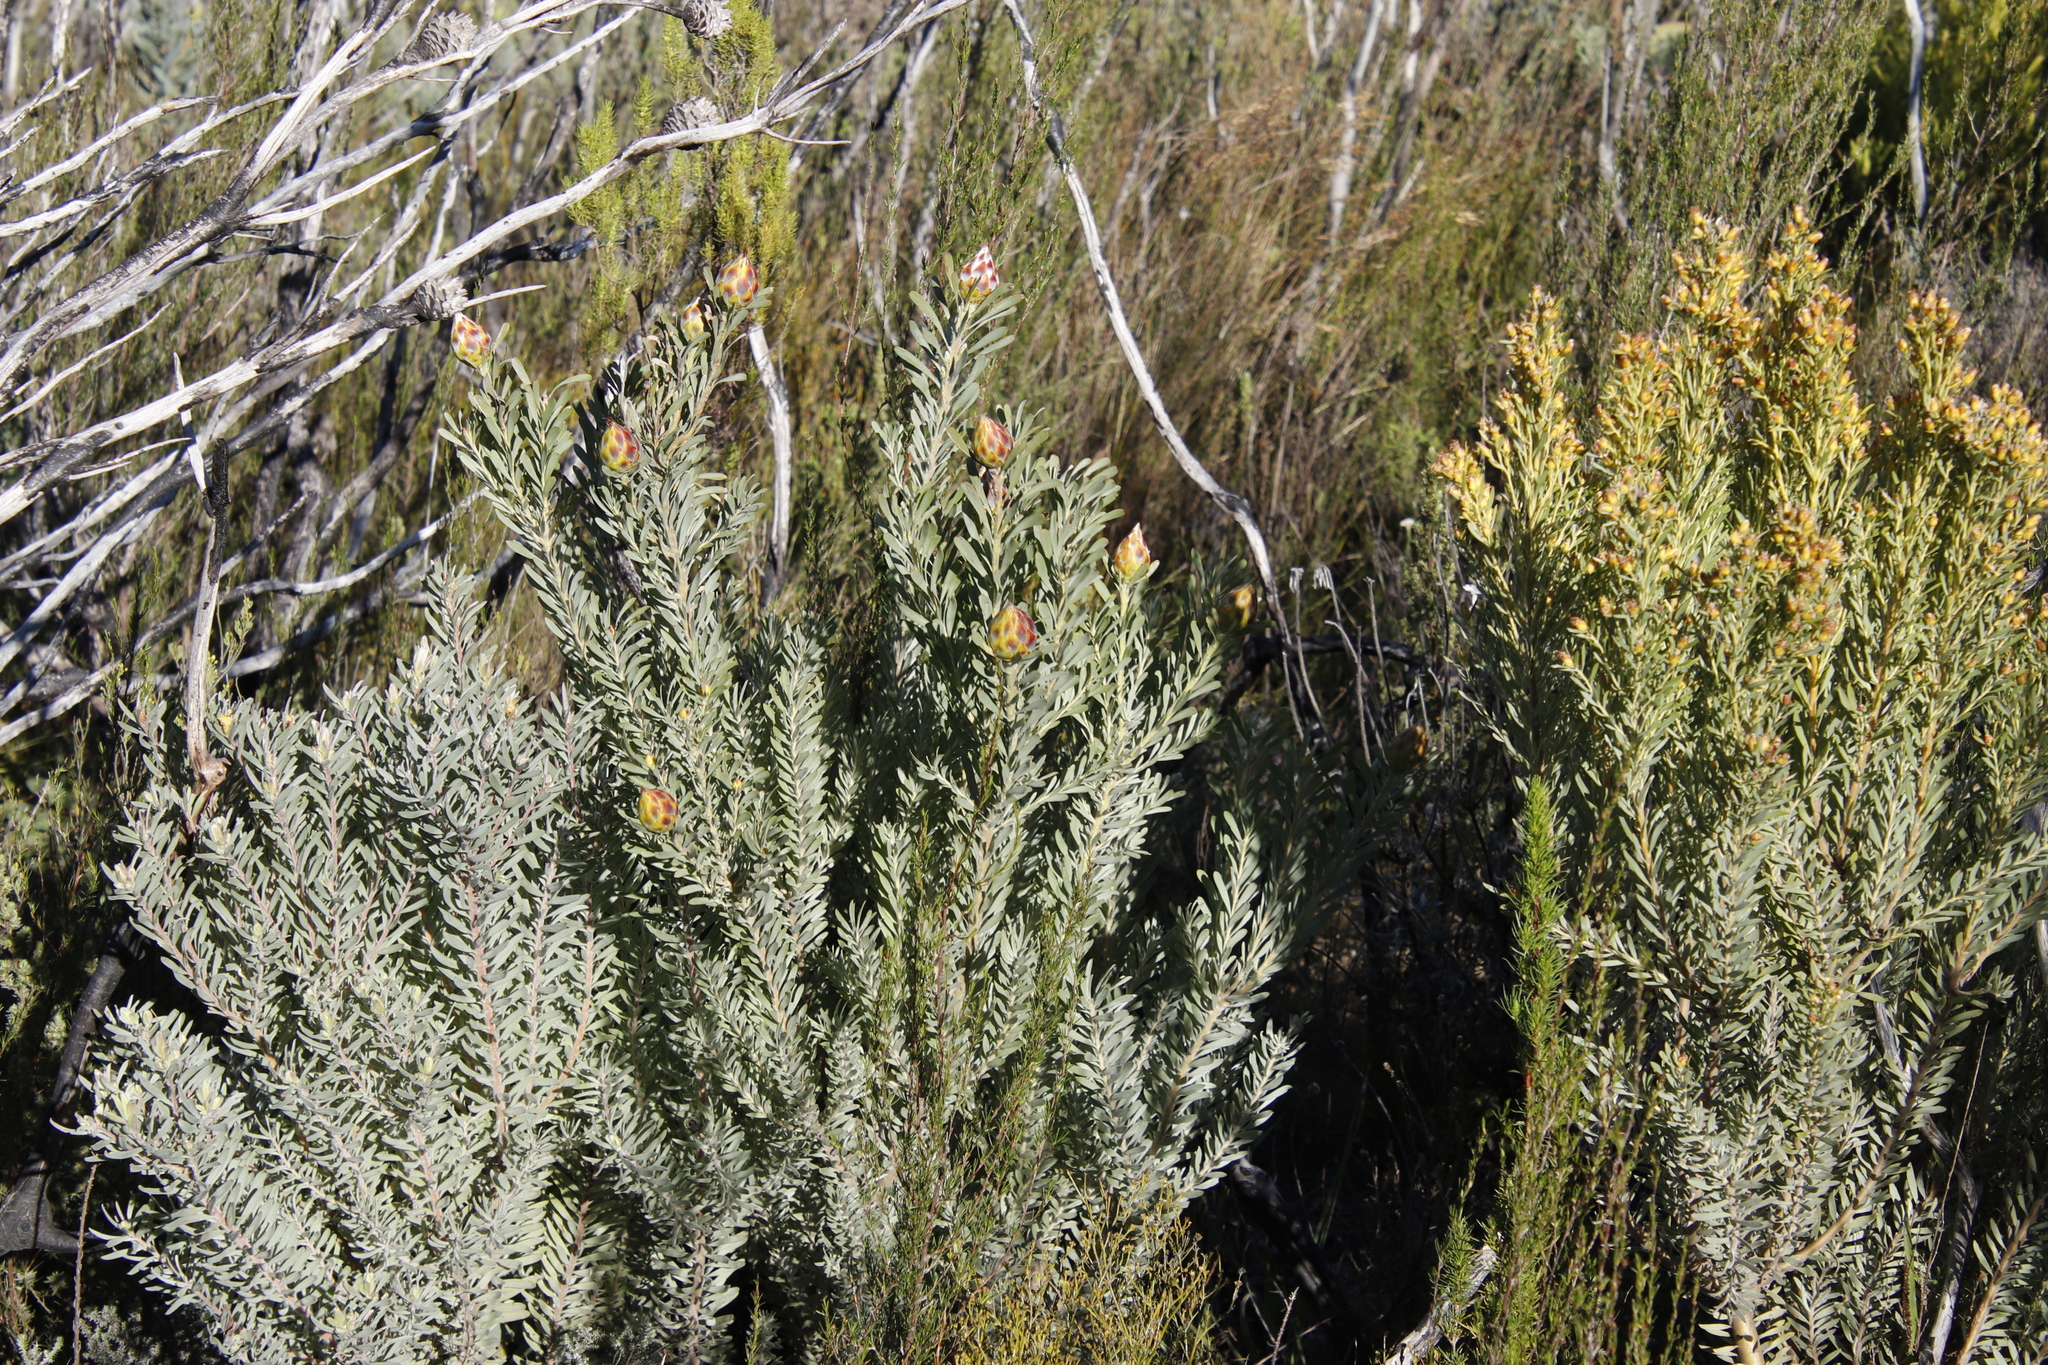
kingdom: Plantae
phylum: Tracheophyta
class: Magnoliopsida
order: Proteales
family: Proteaceae
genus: Leucadendron
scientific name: Leucadendron rubrum
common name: Spinning top
